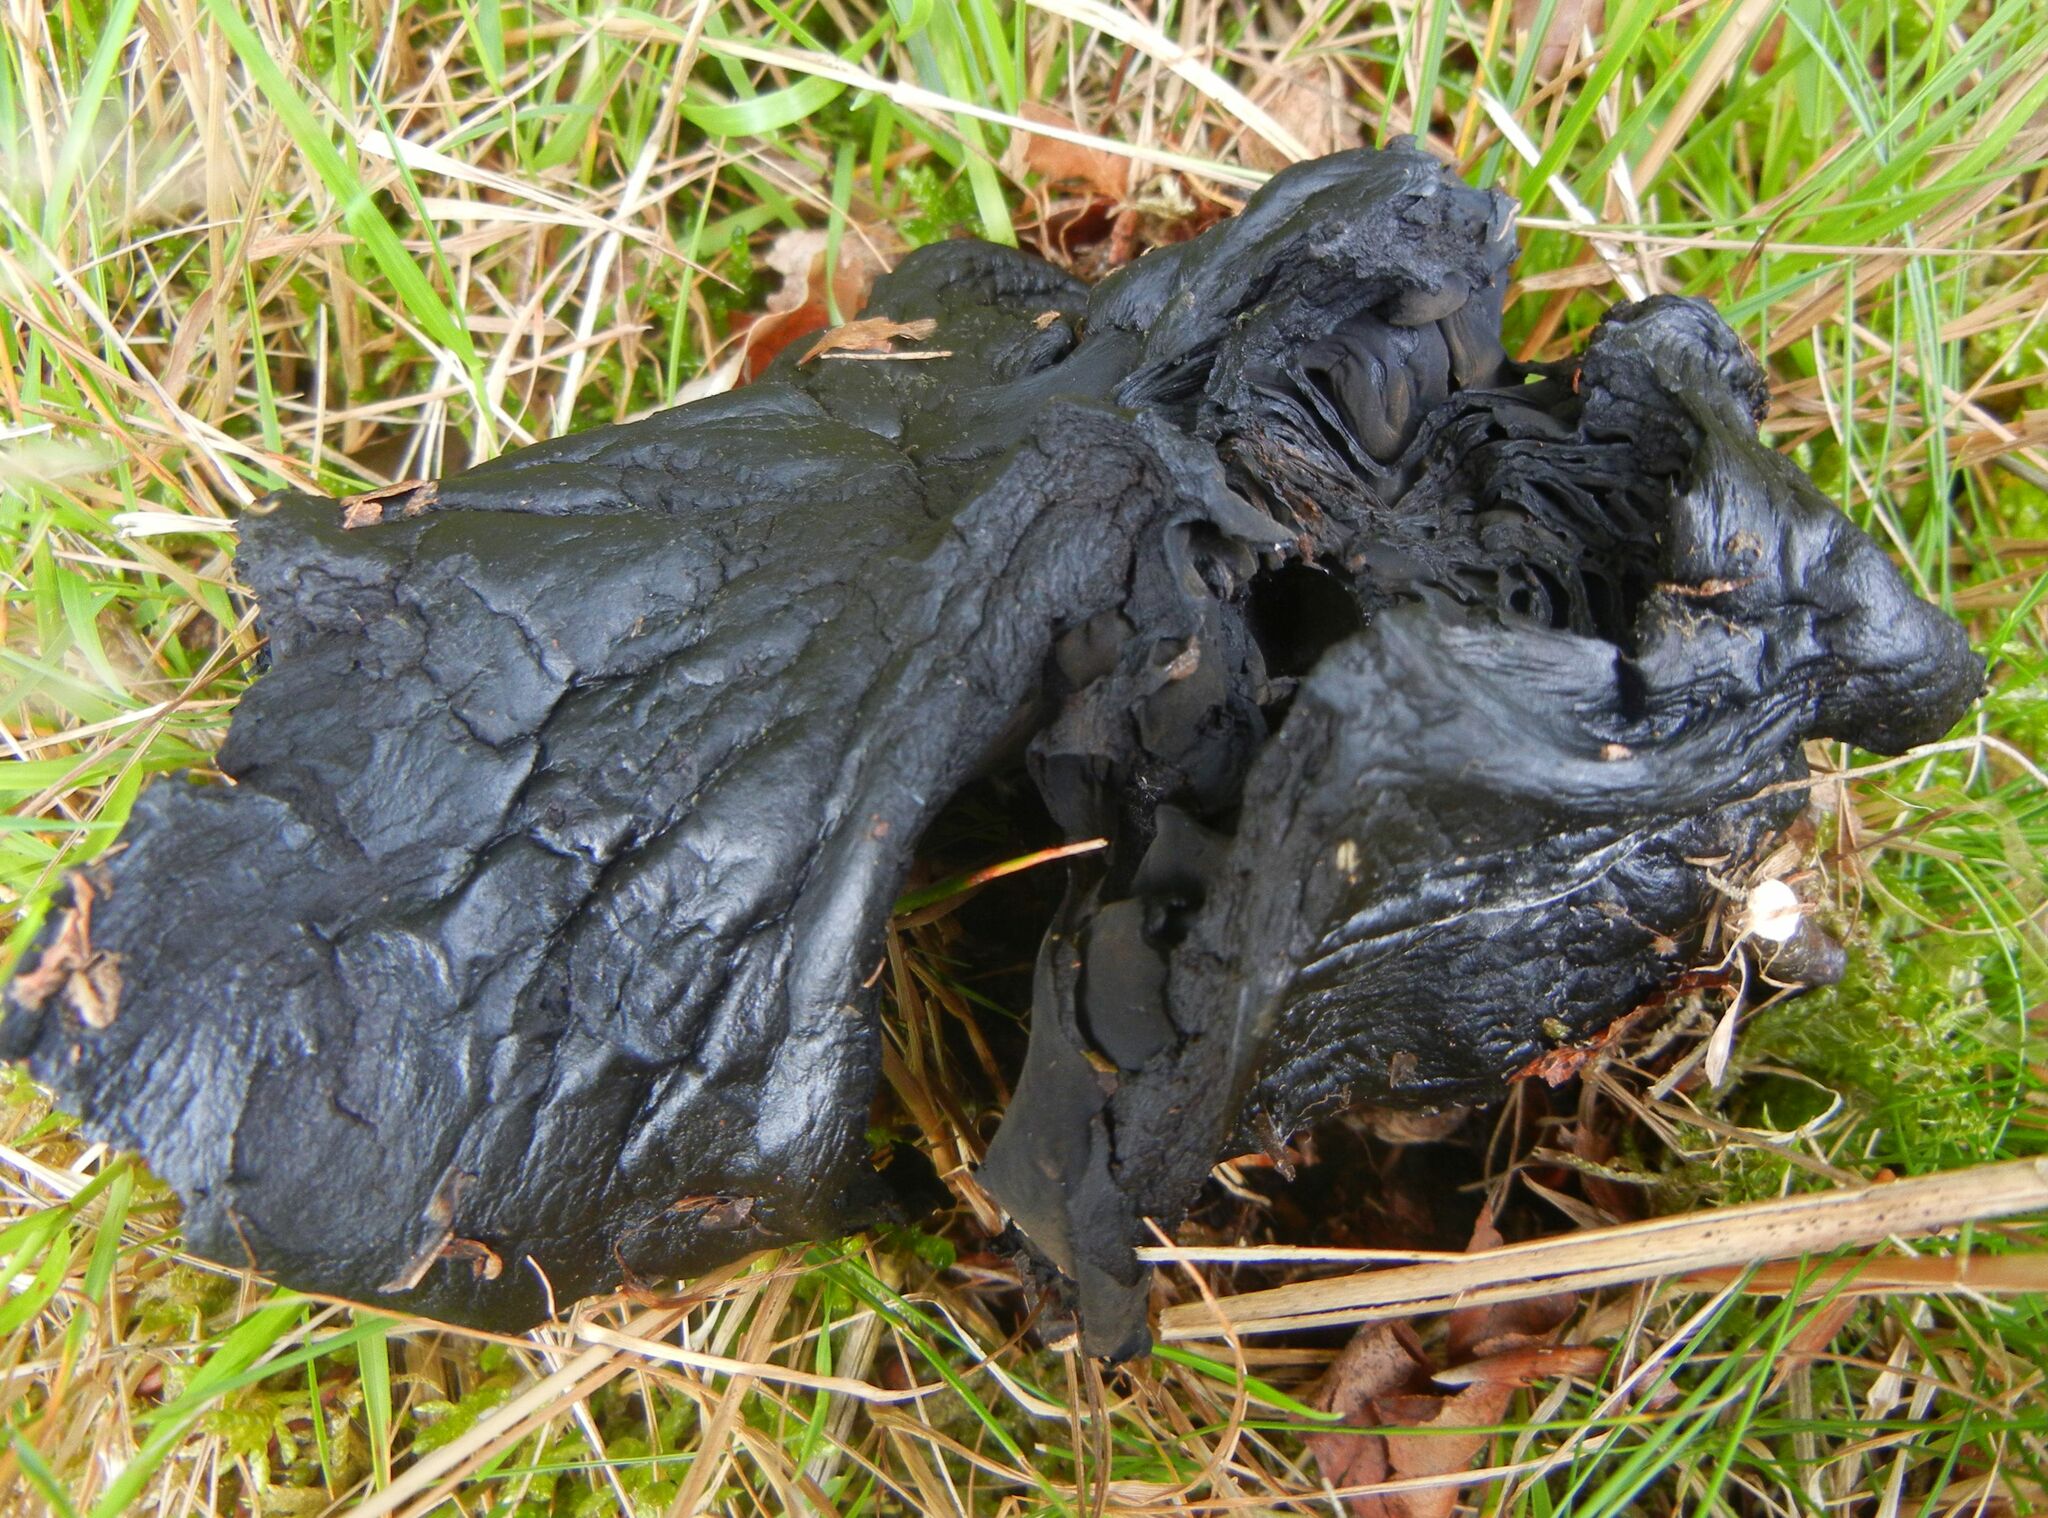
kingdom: Fungi
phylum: Basidiomycota
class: Agaricomycetes
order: Russulales
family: Russulaceae
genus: Russula
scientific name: Russula adusta
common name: Winecork brittlegill
